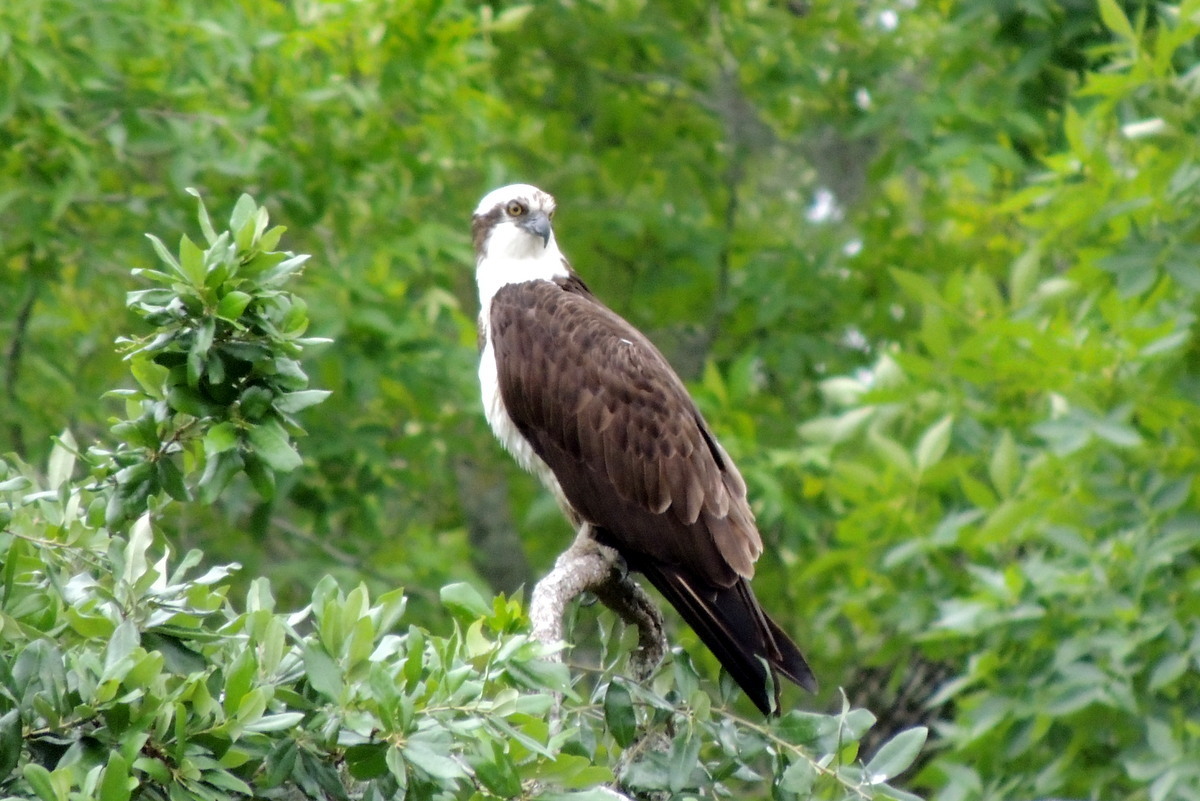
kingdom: Animalia
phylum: Chordata
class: Aves
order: Accipitriformes
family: Pandionidae
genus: Pandion
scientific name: Pandion haliaetus
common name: Osprey
